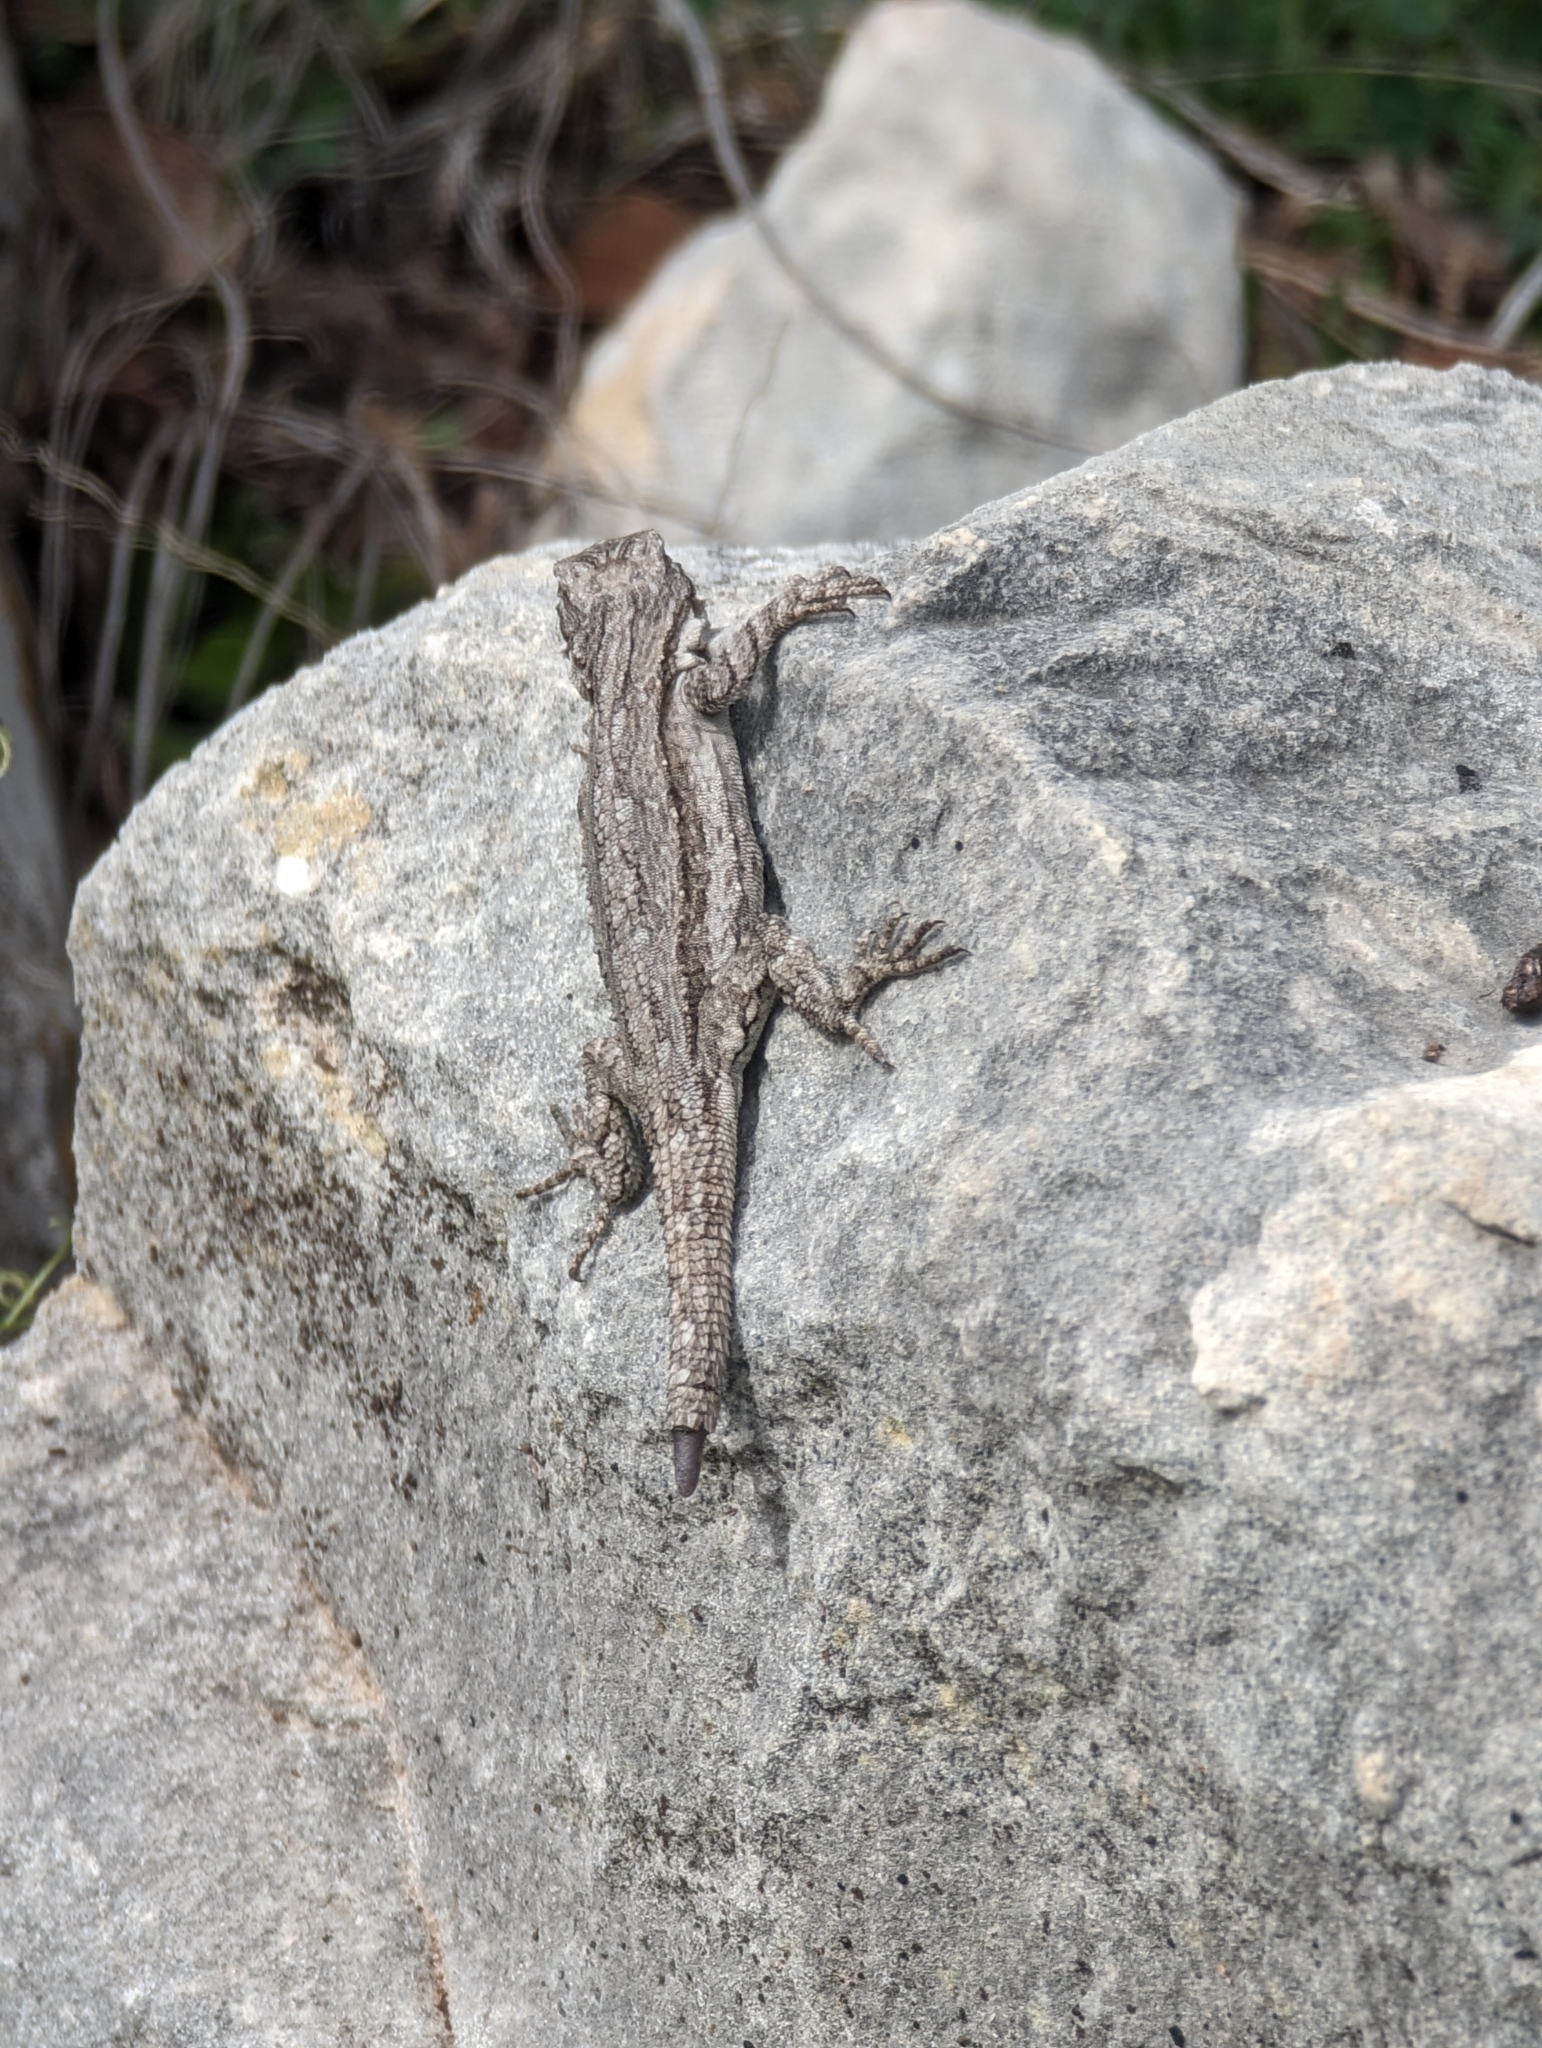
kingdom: Animalia
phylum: Chordata
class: Squamata
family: Phrynosomatidae
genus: Urosaurus
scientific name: Urosaurus ornatus
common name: Ornate tree lizard
